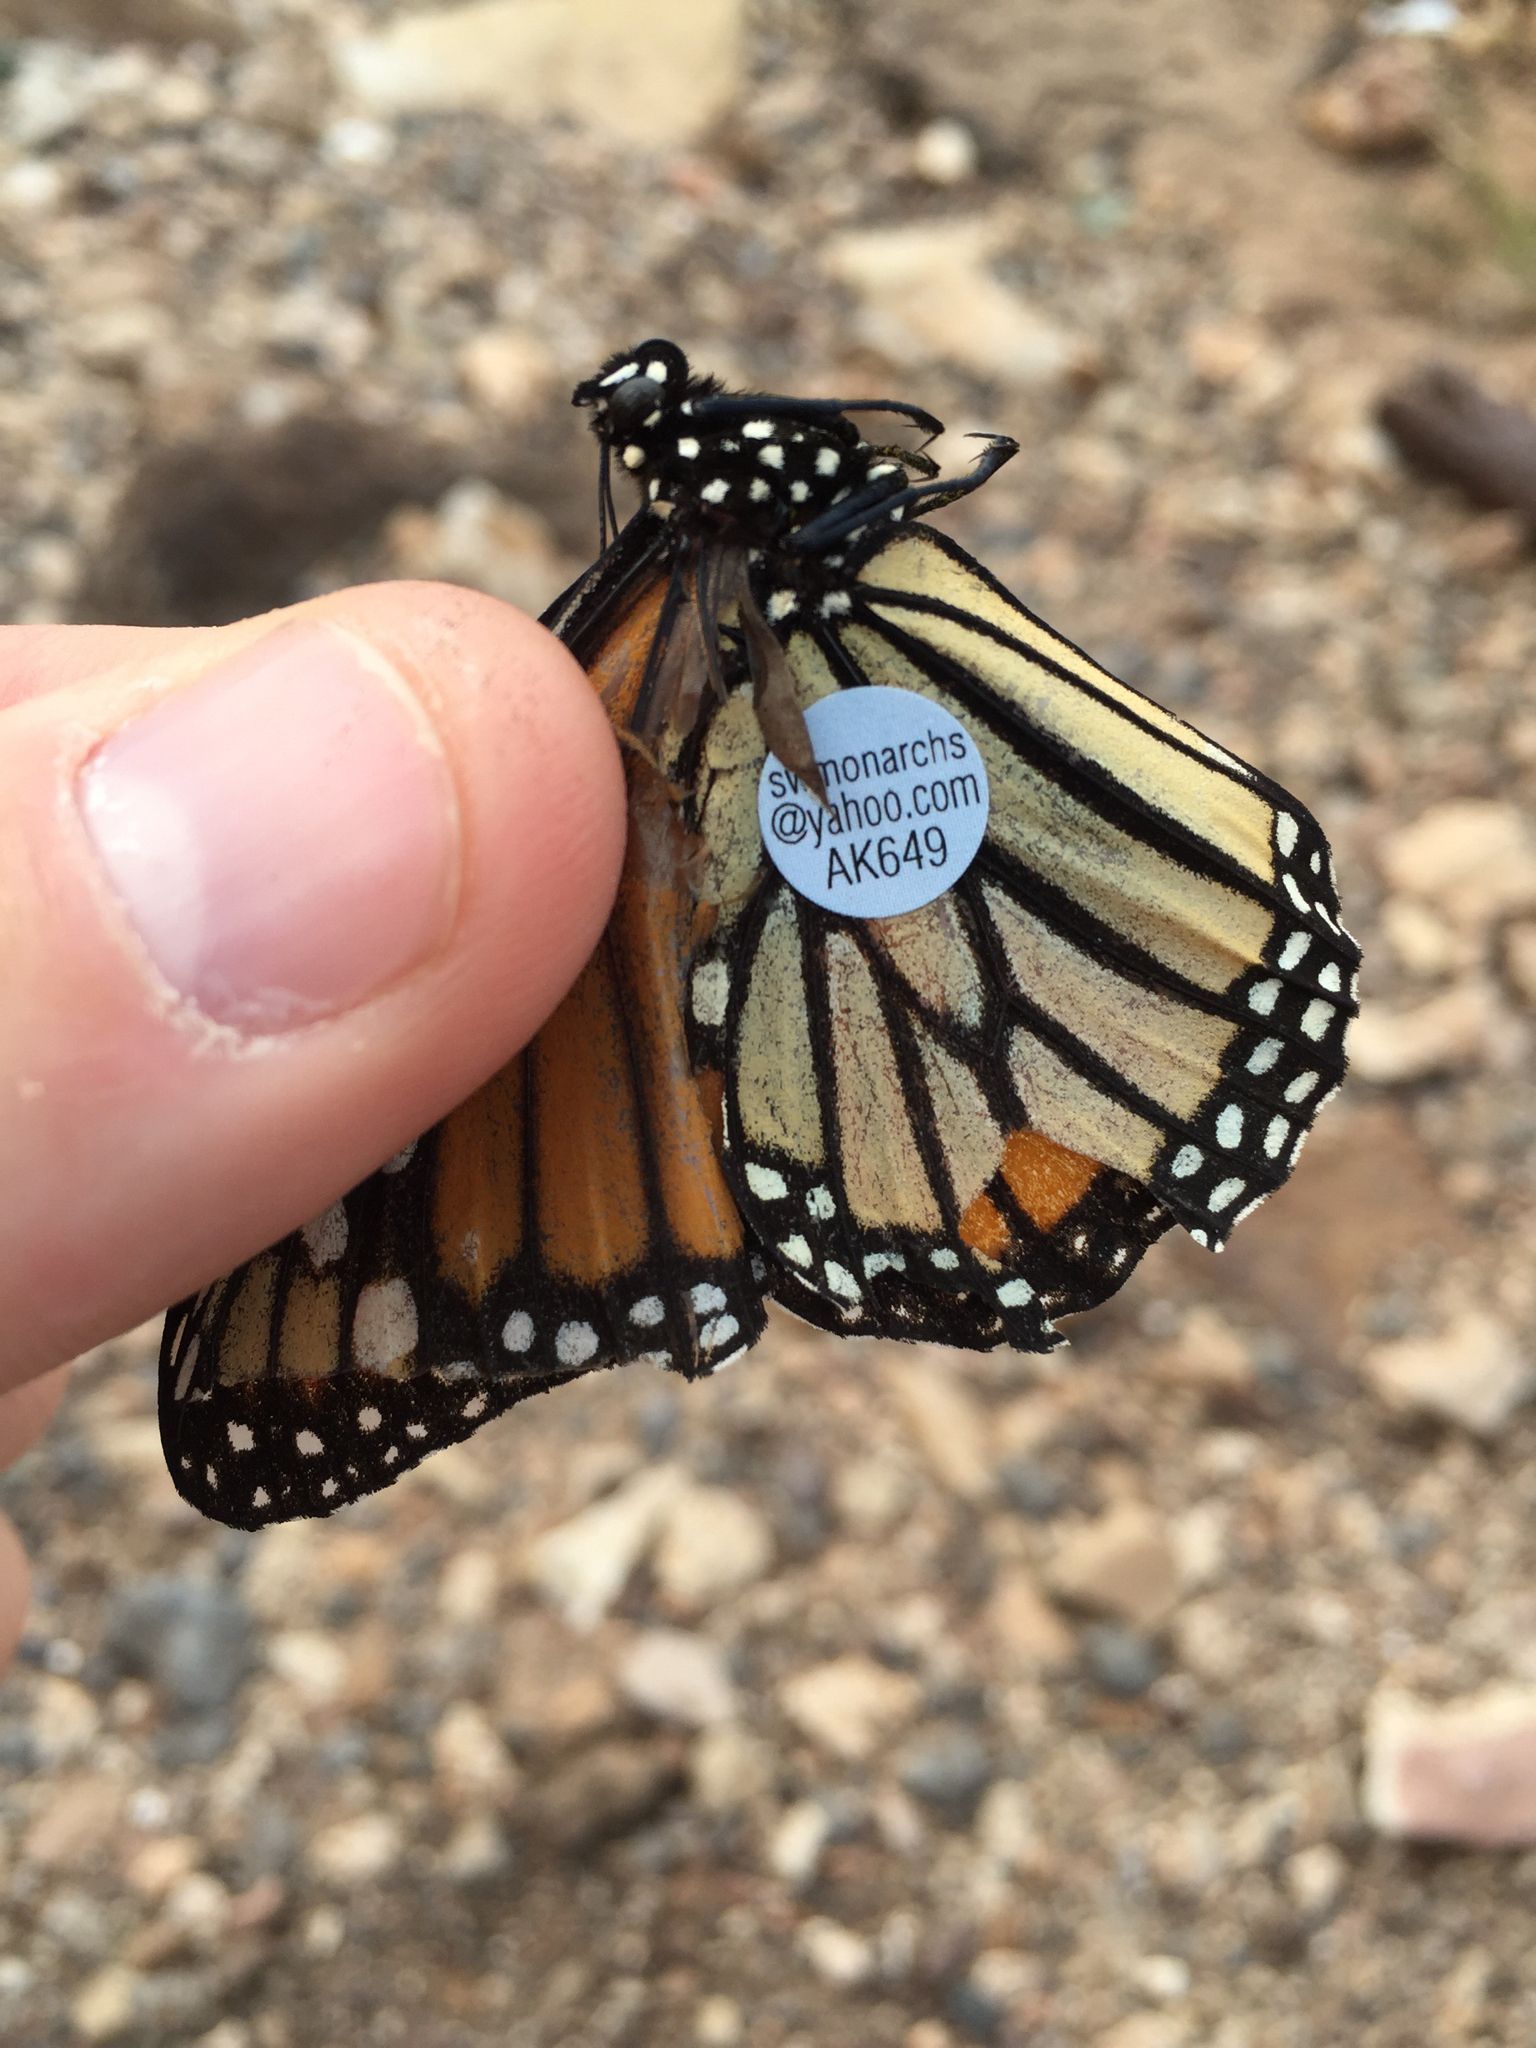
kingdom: Animalia
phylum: Arthropoda
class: Insecta
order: Lepidoptera
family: Nymphalidae
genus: Danaus
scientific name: Danaus plexippus
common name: Monarch
